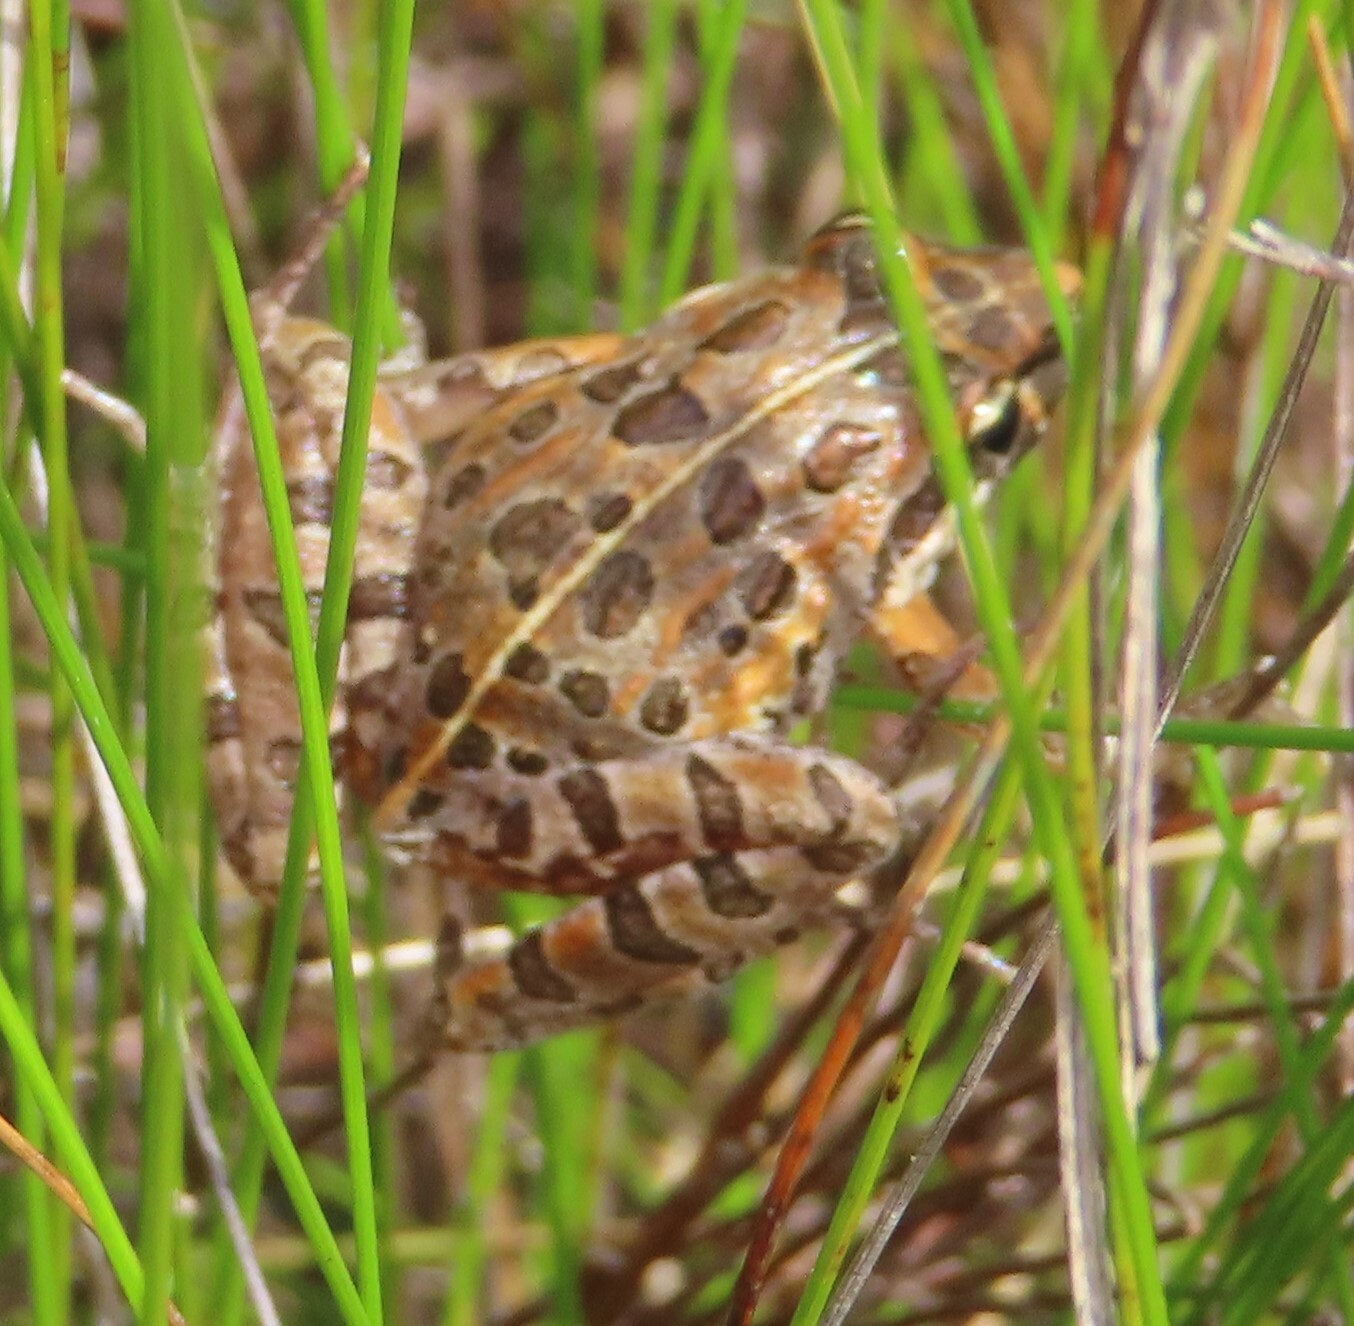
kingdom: Animalia
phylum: Chordata
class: Amphibia
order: Anura
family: Pyxicephalidae
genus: Strongylopus
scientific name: Strongylopus grayii
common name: Gray's stream frog
